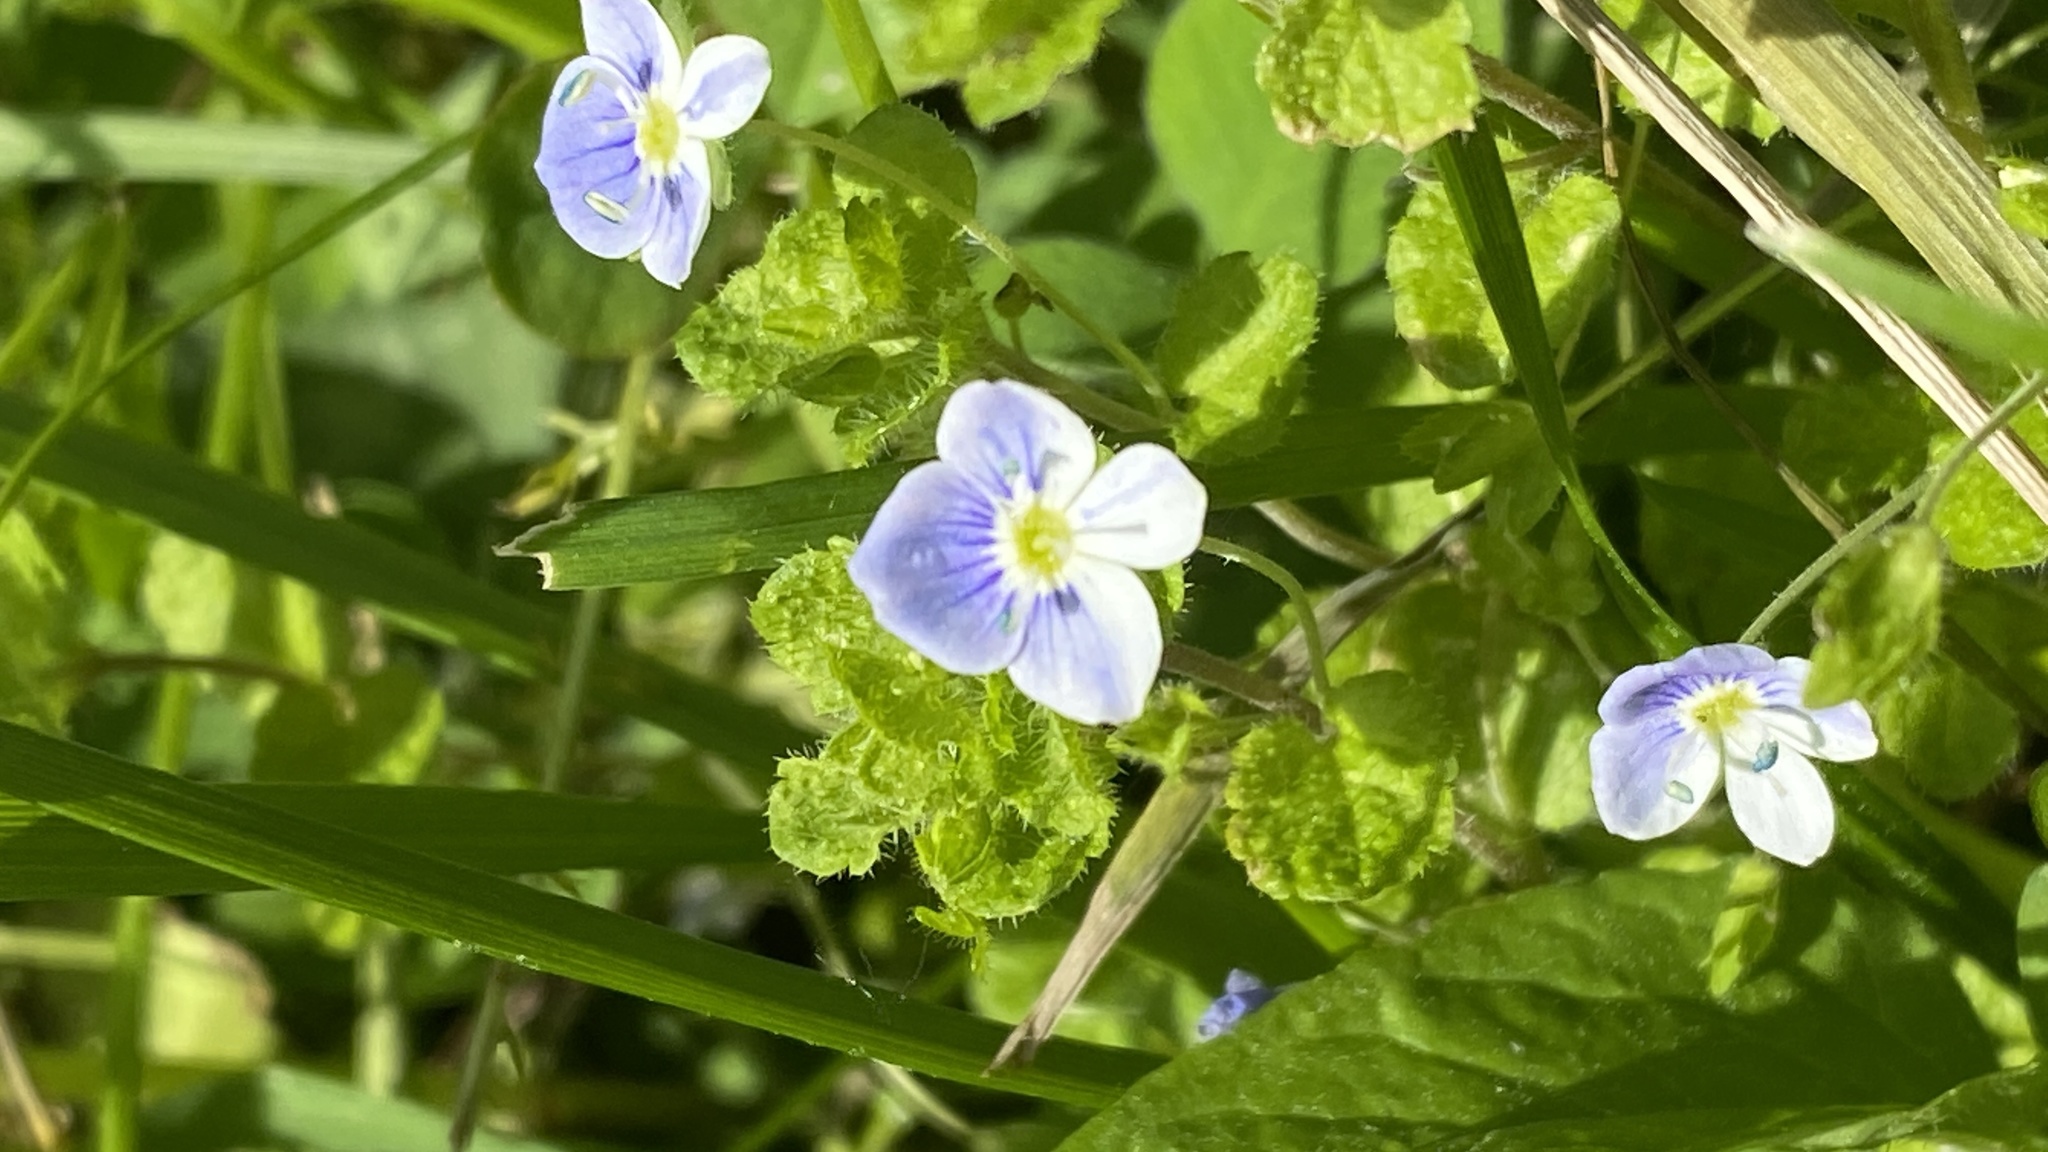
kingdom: Plantae
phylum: Tracheophyta
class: Magnoliopsida
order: Lamiales
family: Plantaginaceae
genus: Veronica
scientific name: Veronica filiformis
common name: Slender speedwell
